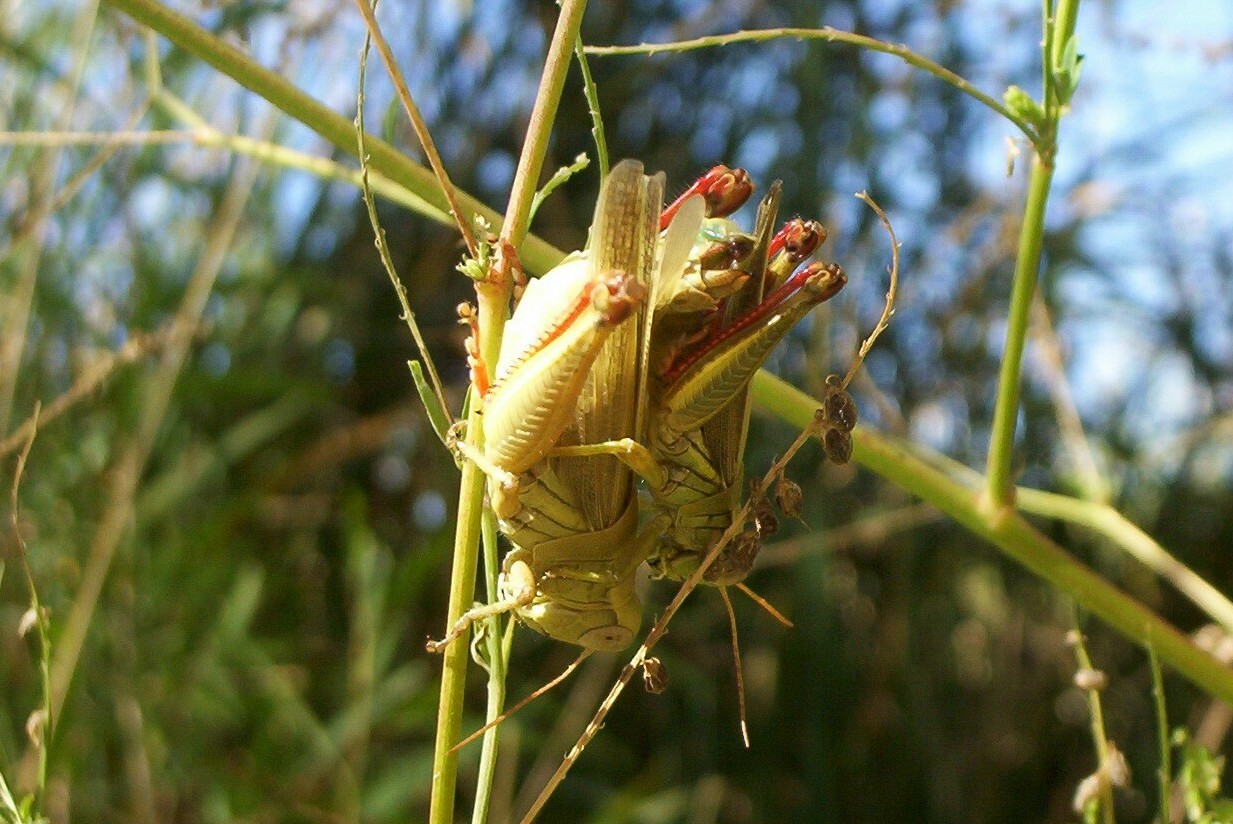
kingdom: Animalia
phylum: Arthropoda
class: Insecta
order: Orthoptera
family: Acrididae
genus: Melanoplus
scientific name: Melanoplus yarrowii
